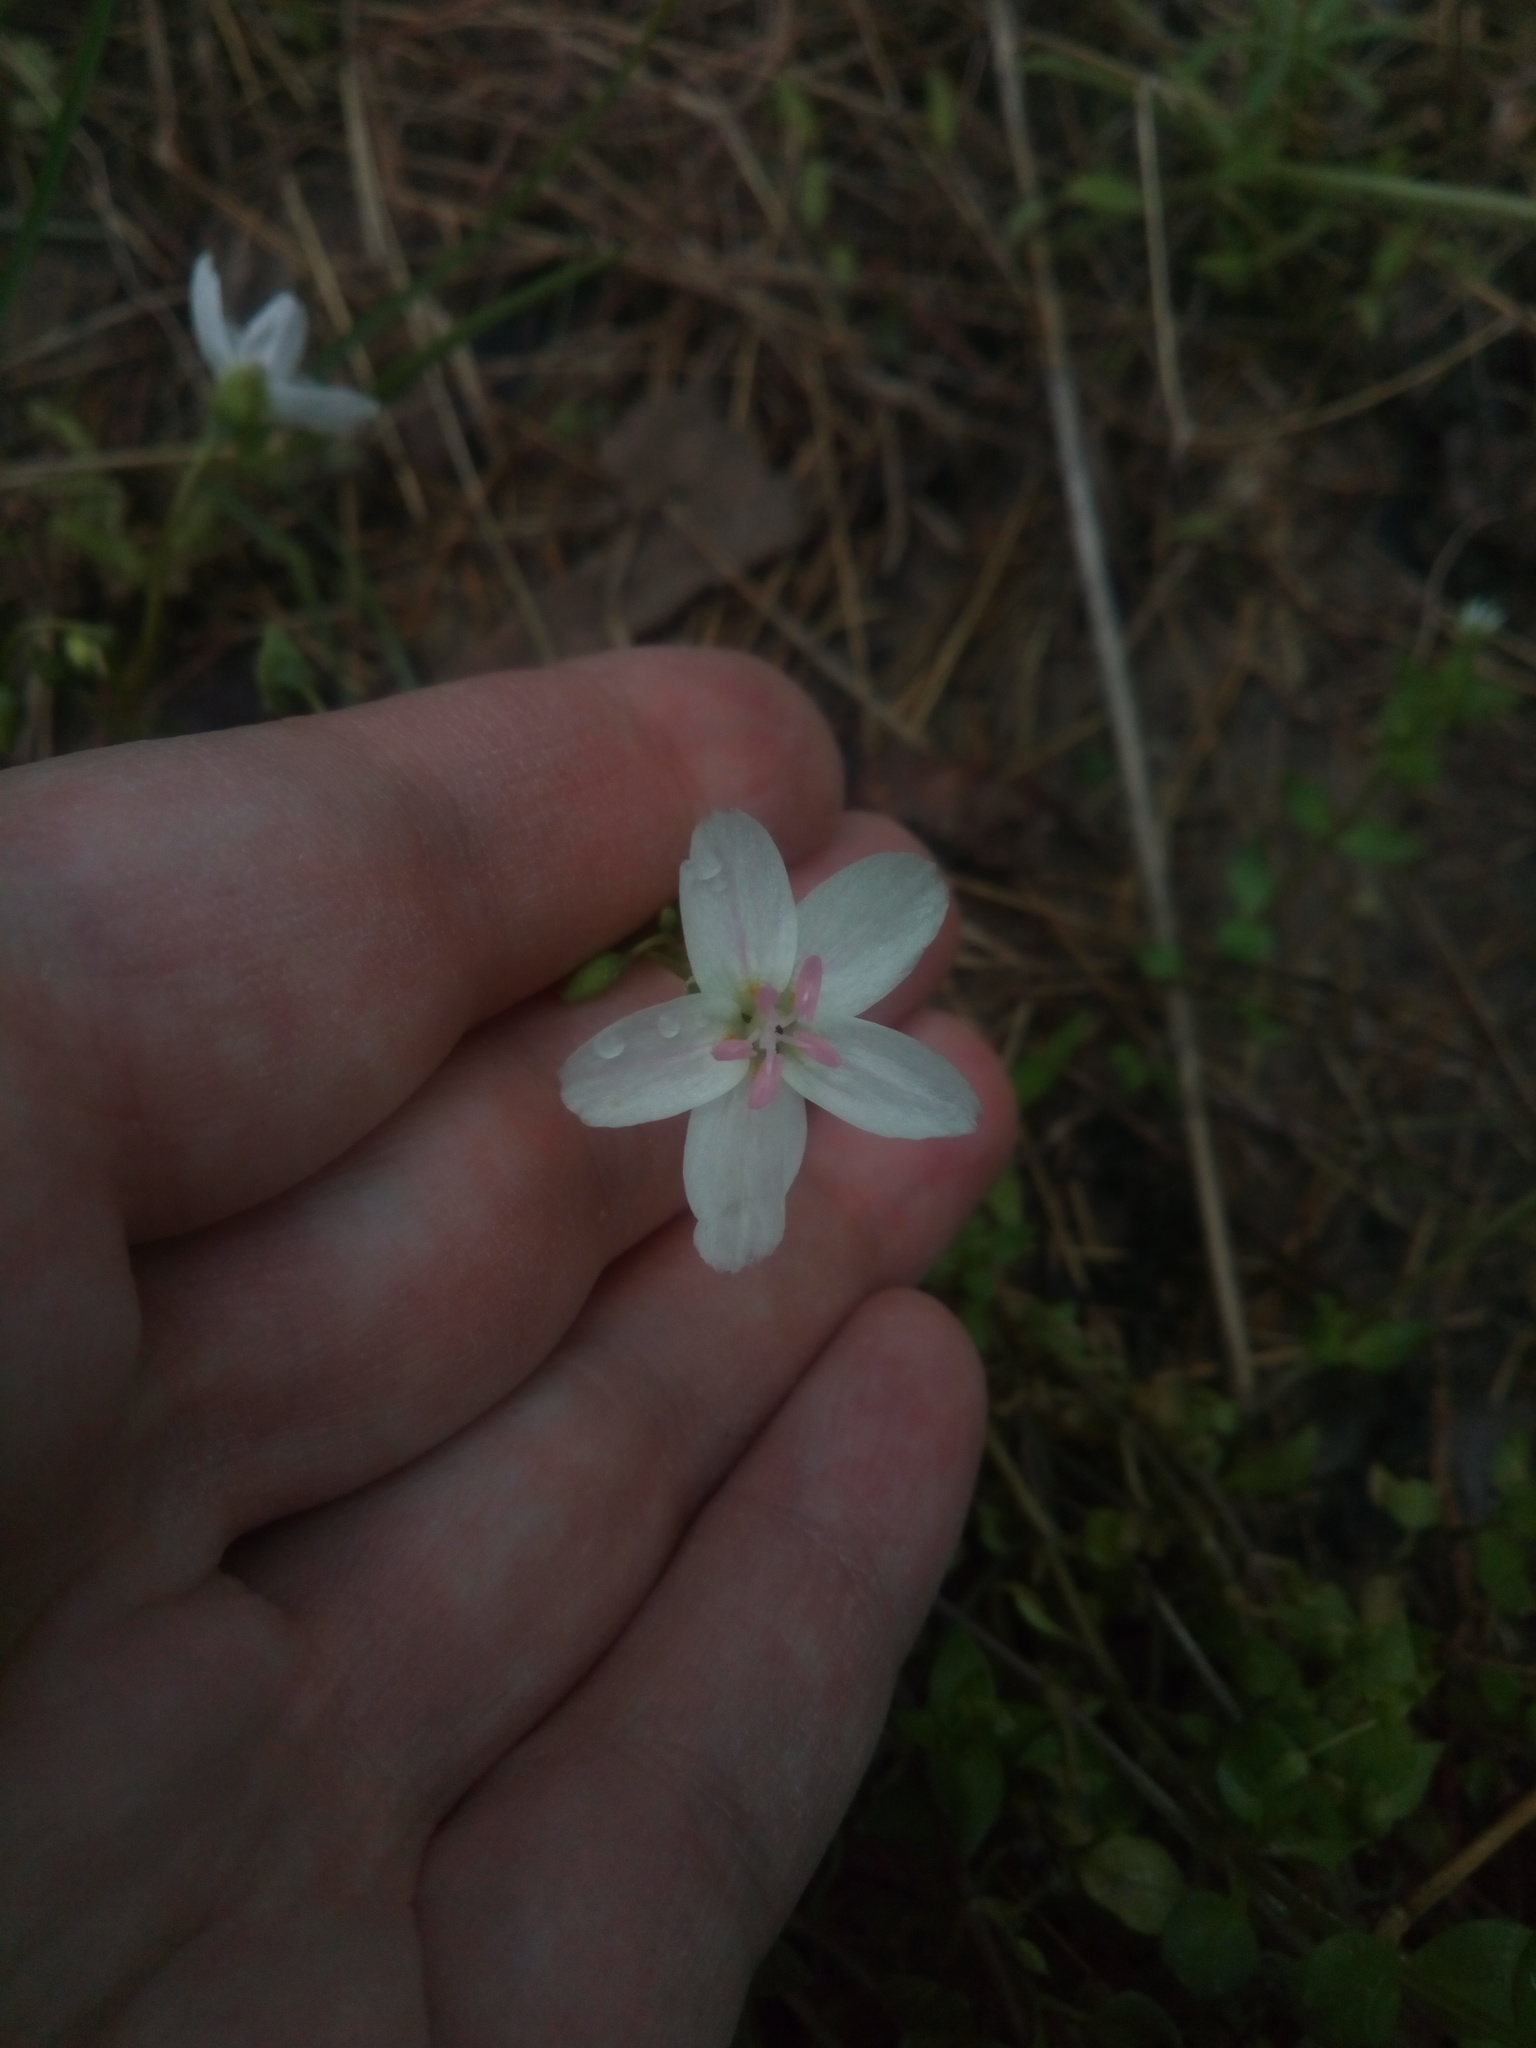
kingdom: Plantae
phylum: Tracheophyta
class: Magnoliopsida
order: Caryophyllales
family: Montiaceae
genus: Claytonia
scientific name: Claytonia virginica
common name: Virginia springbeauty
